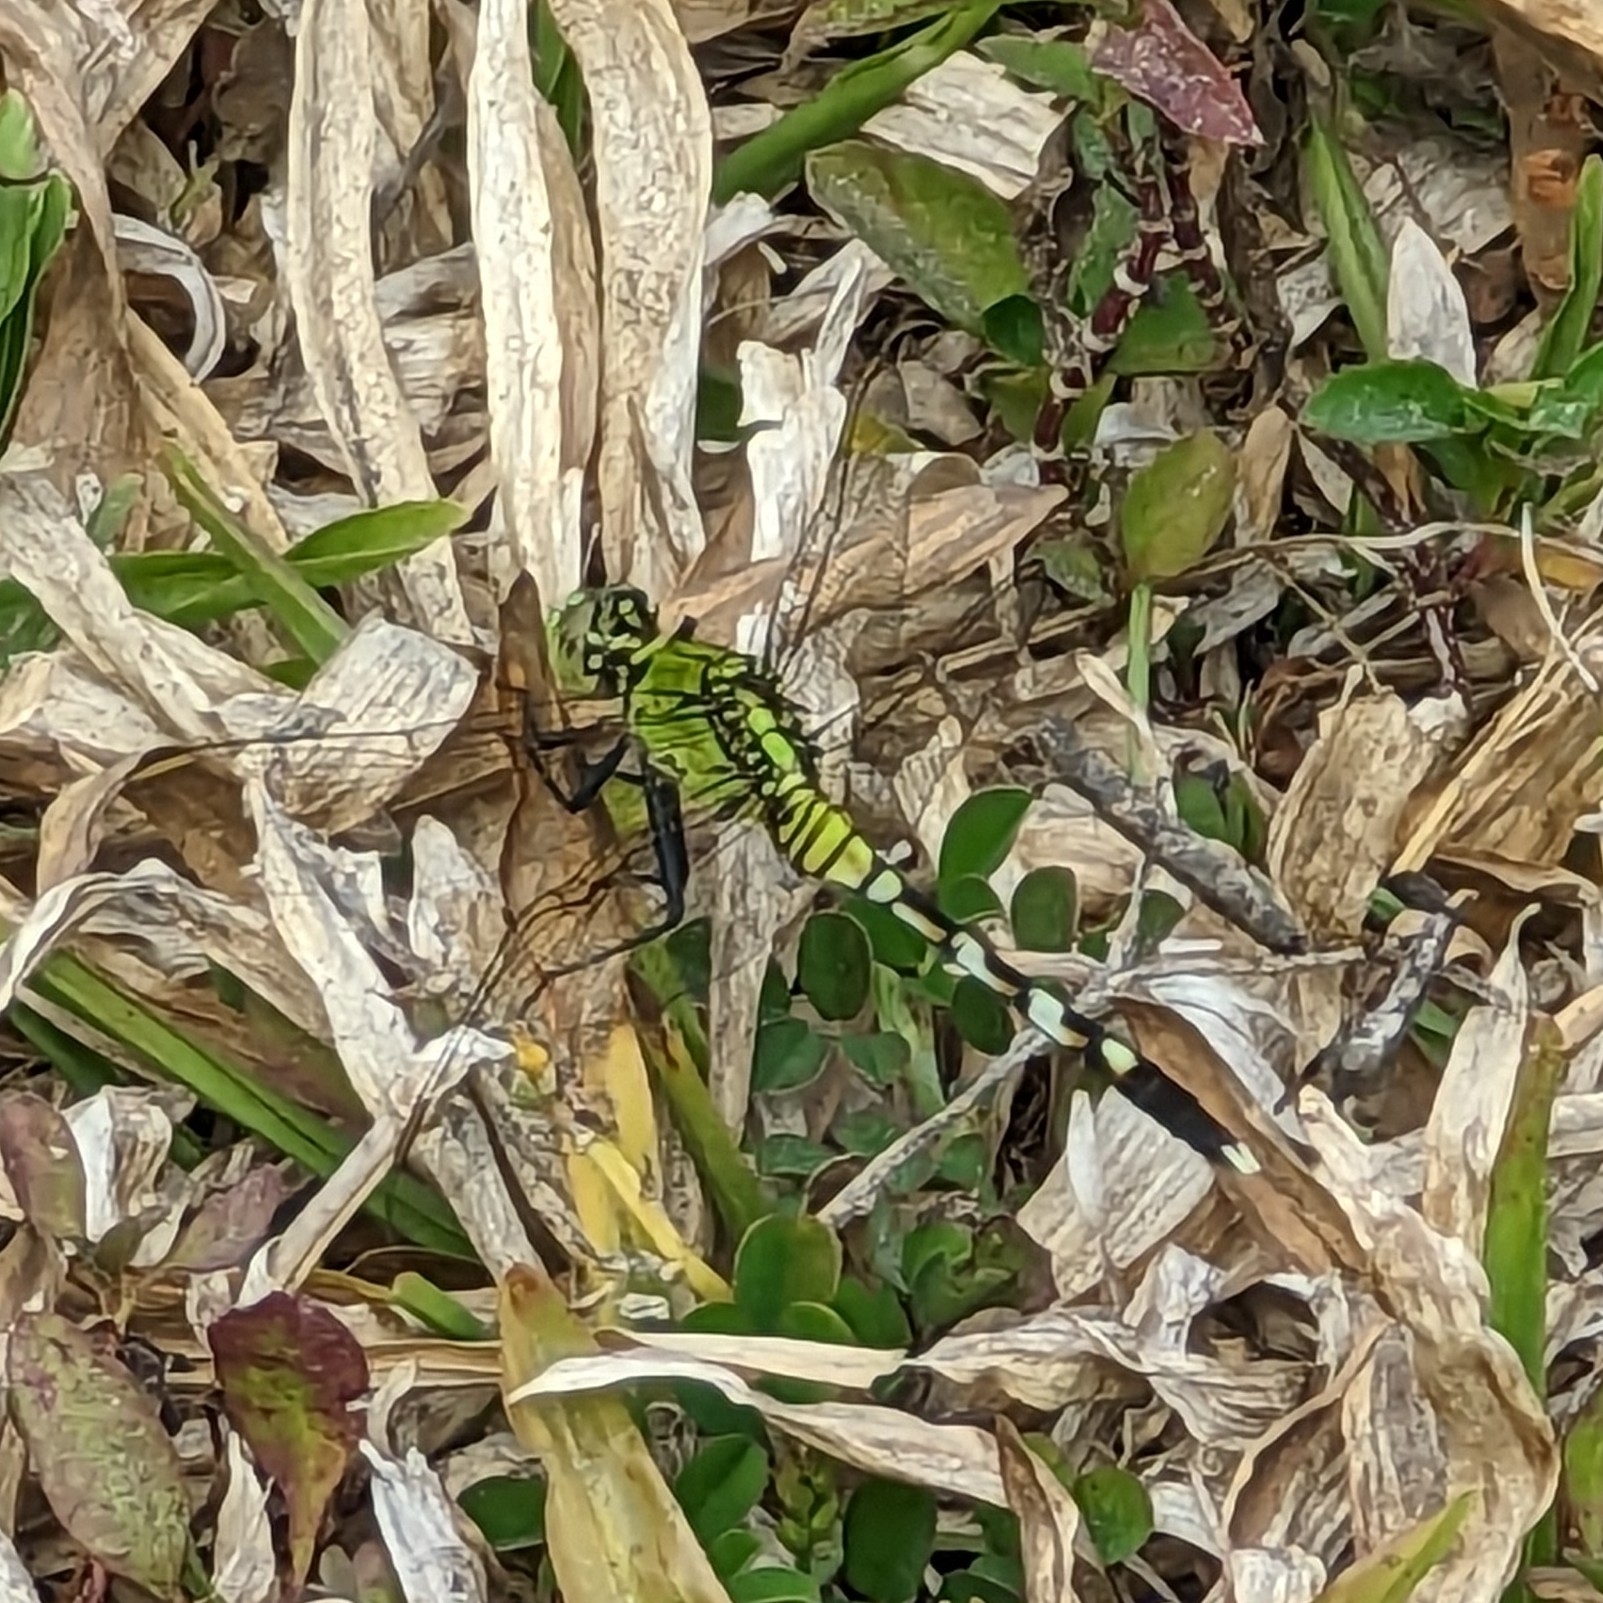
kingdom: Animalia
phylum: Arthropoda
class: Insecta
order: Odonata
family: Libellulidae
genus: Erythemis
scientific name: Erythemis simplicicollis
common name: Eastern pondhawk
